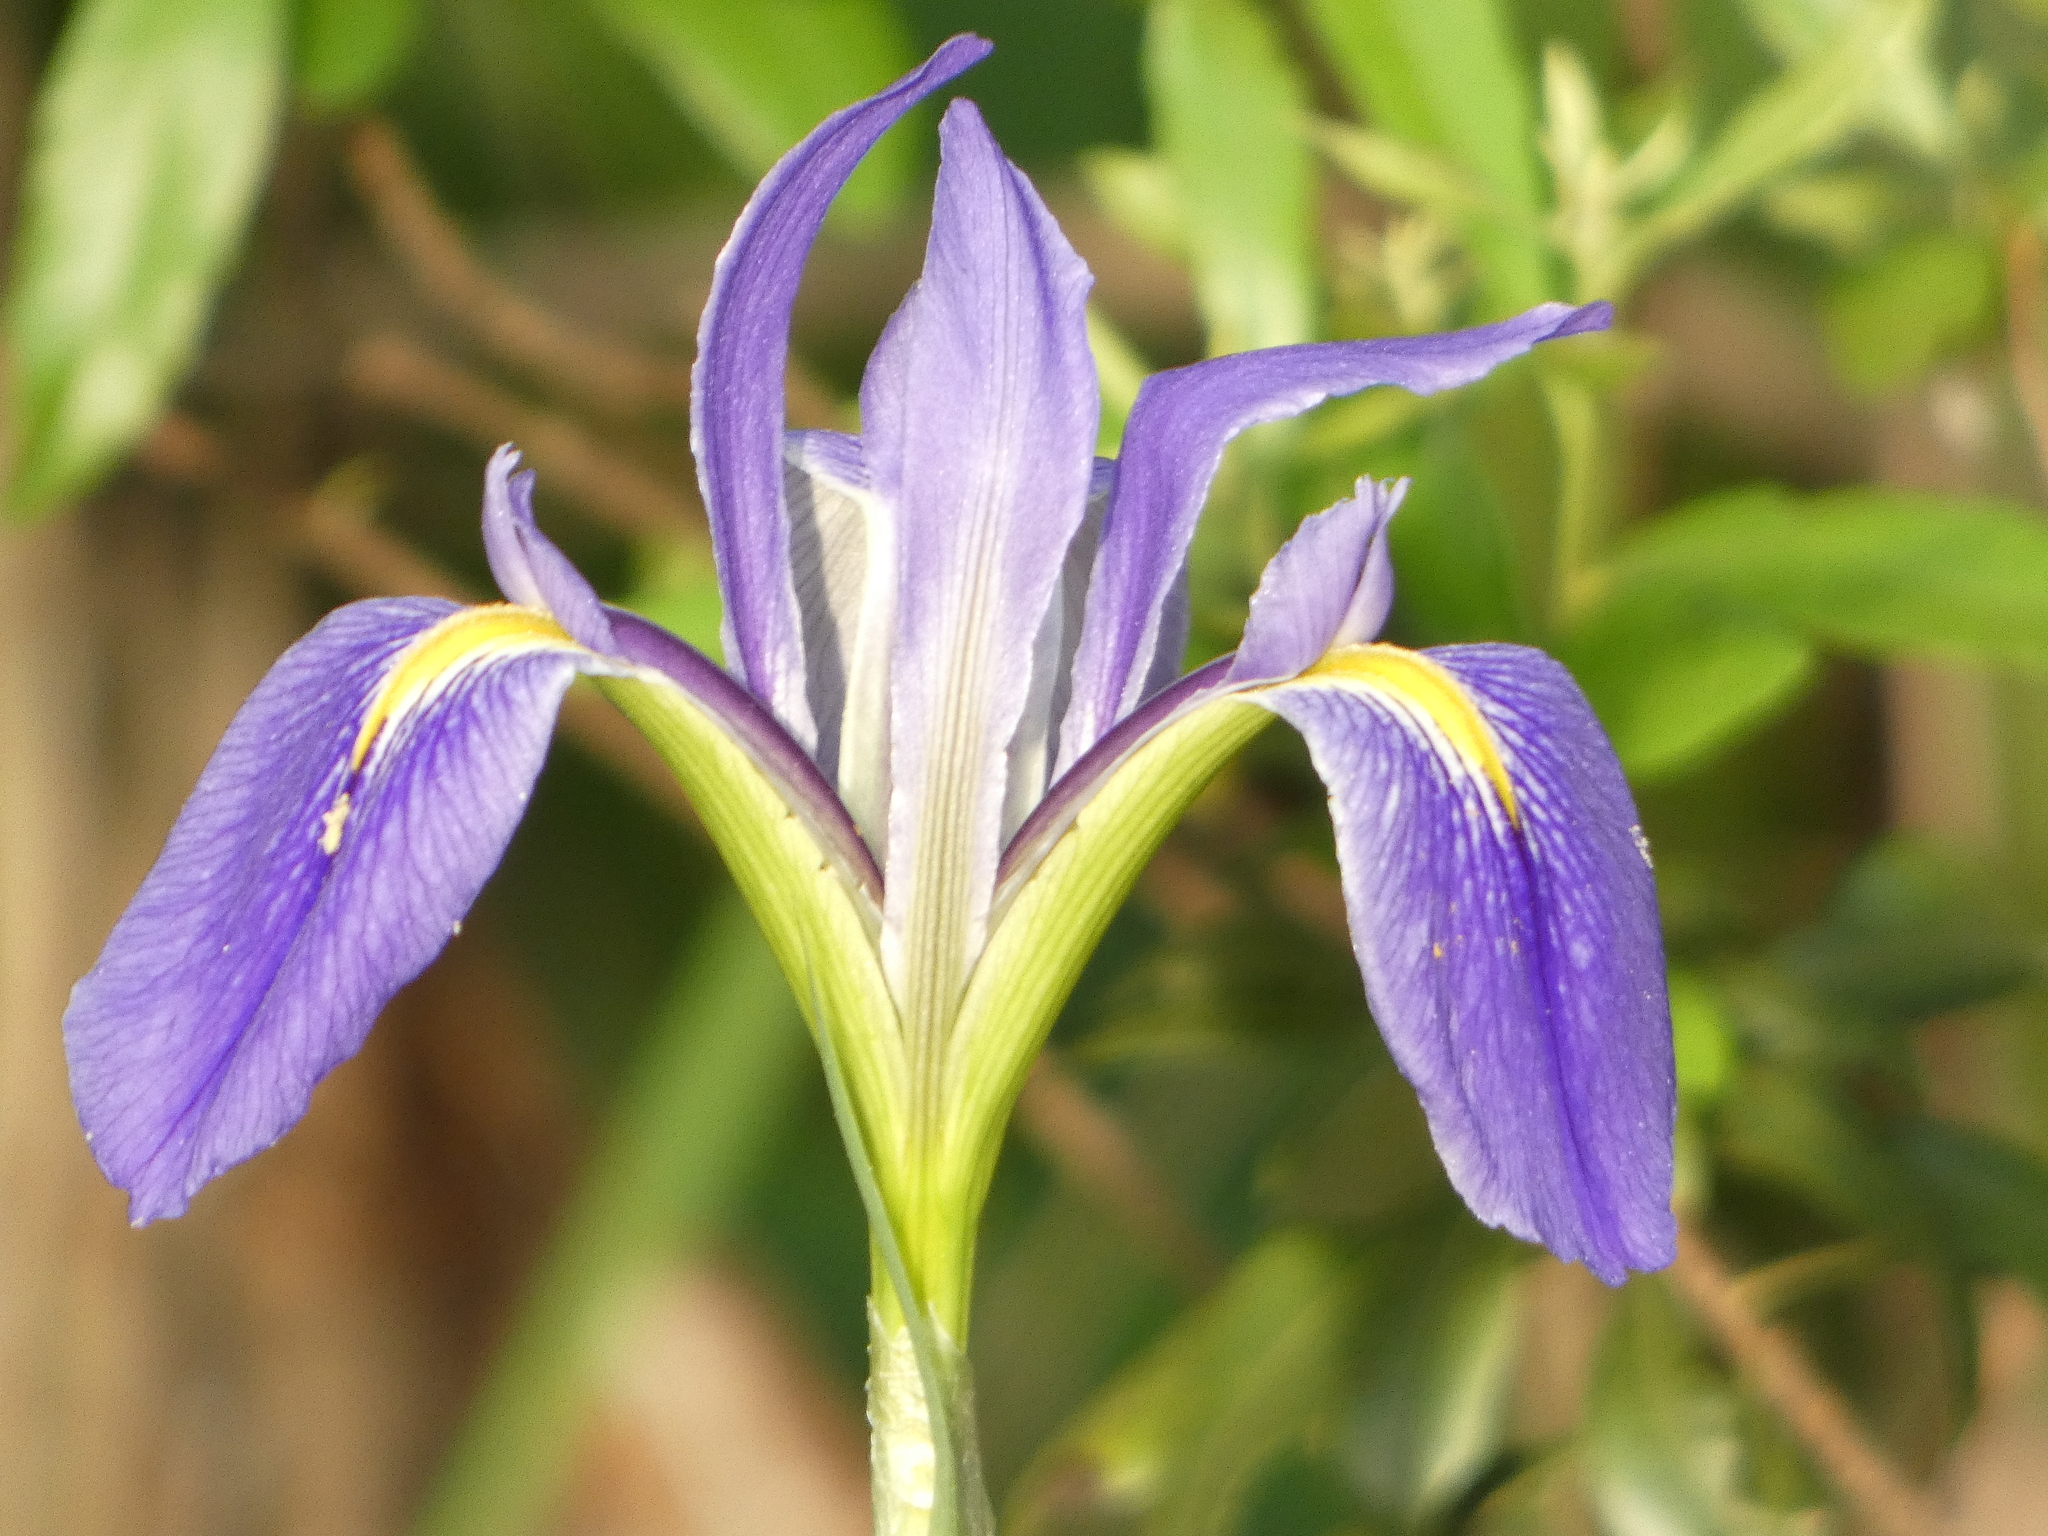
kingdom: Plantae
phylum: Tracheophyta
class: Liliopsida
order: Asparagales
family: Iridaceae
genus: Iris
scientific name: Iris savannarum
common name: Prairie iris
